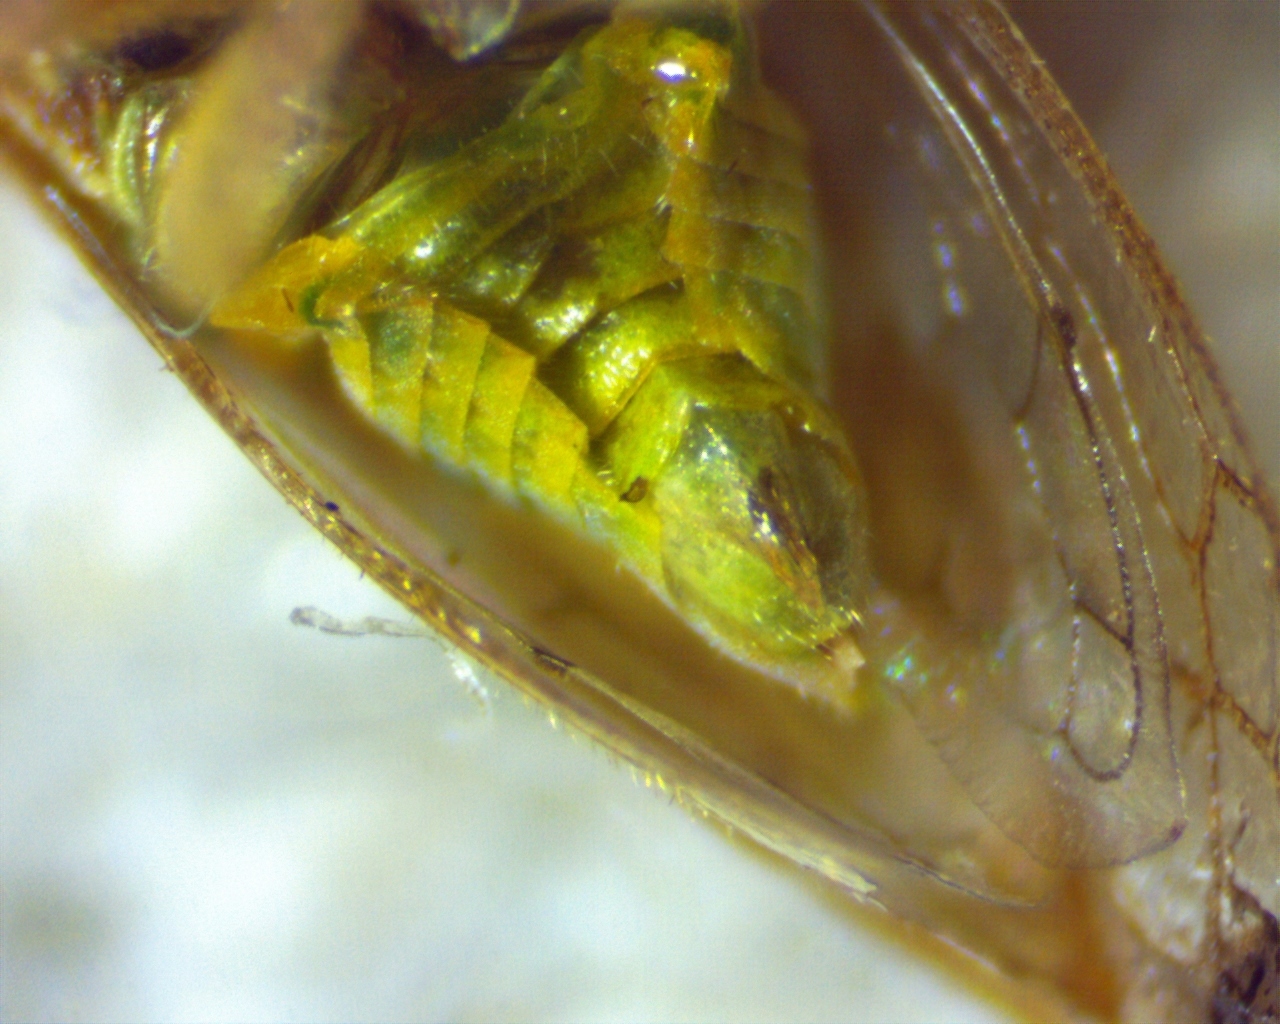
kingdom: Animalia
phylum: Arthropoda
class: Insecta
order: Hemiptera
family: Membracidae
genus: Cyrtolobus
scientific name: Cyrtolobus togatus
